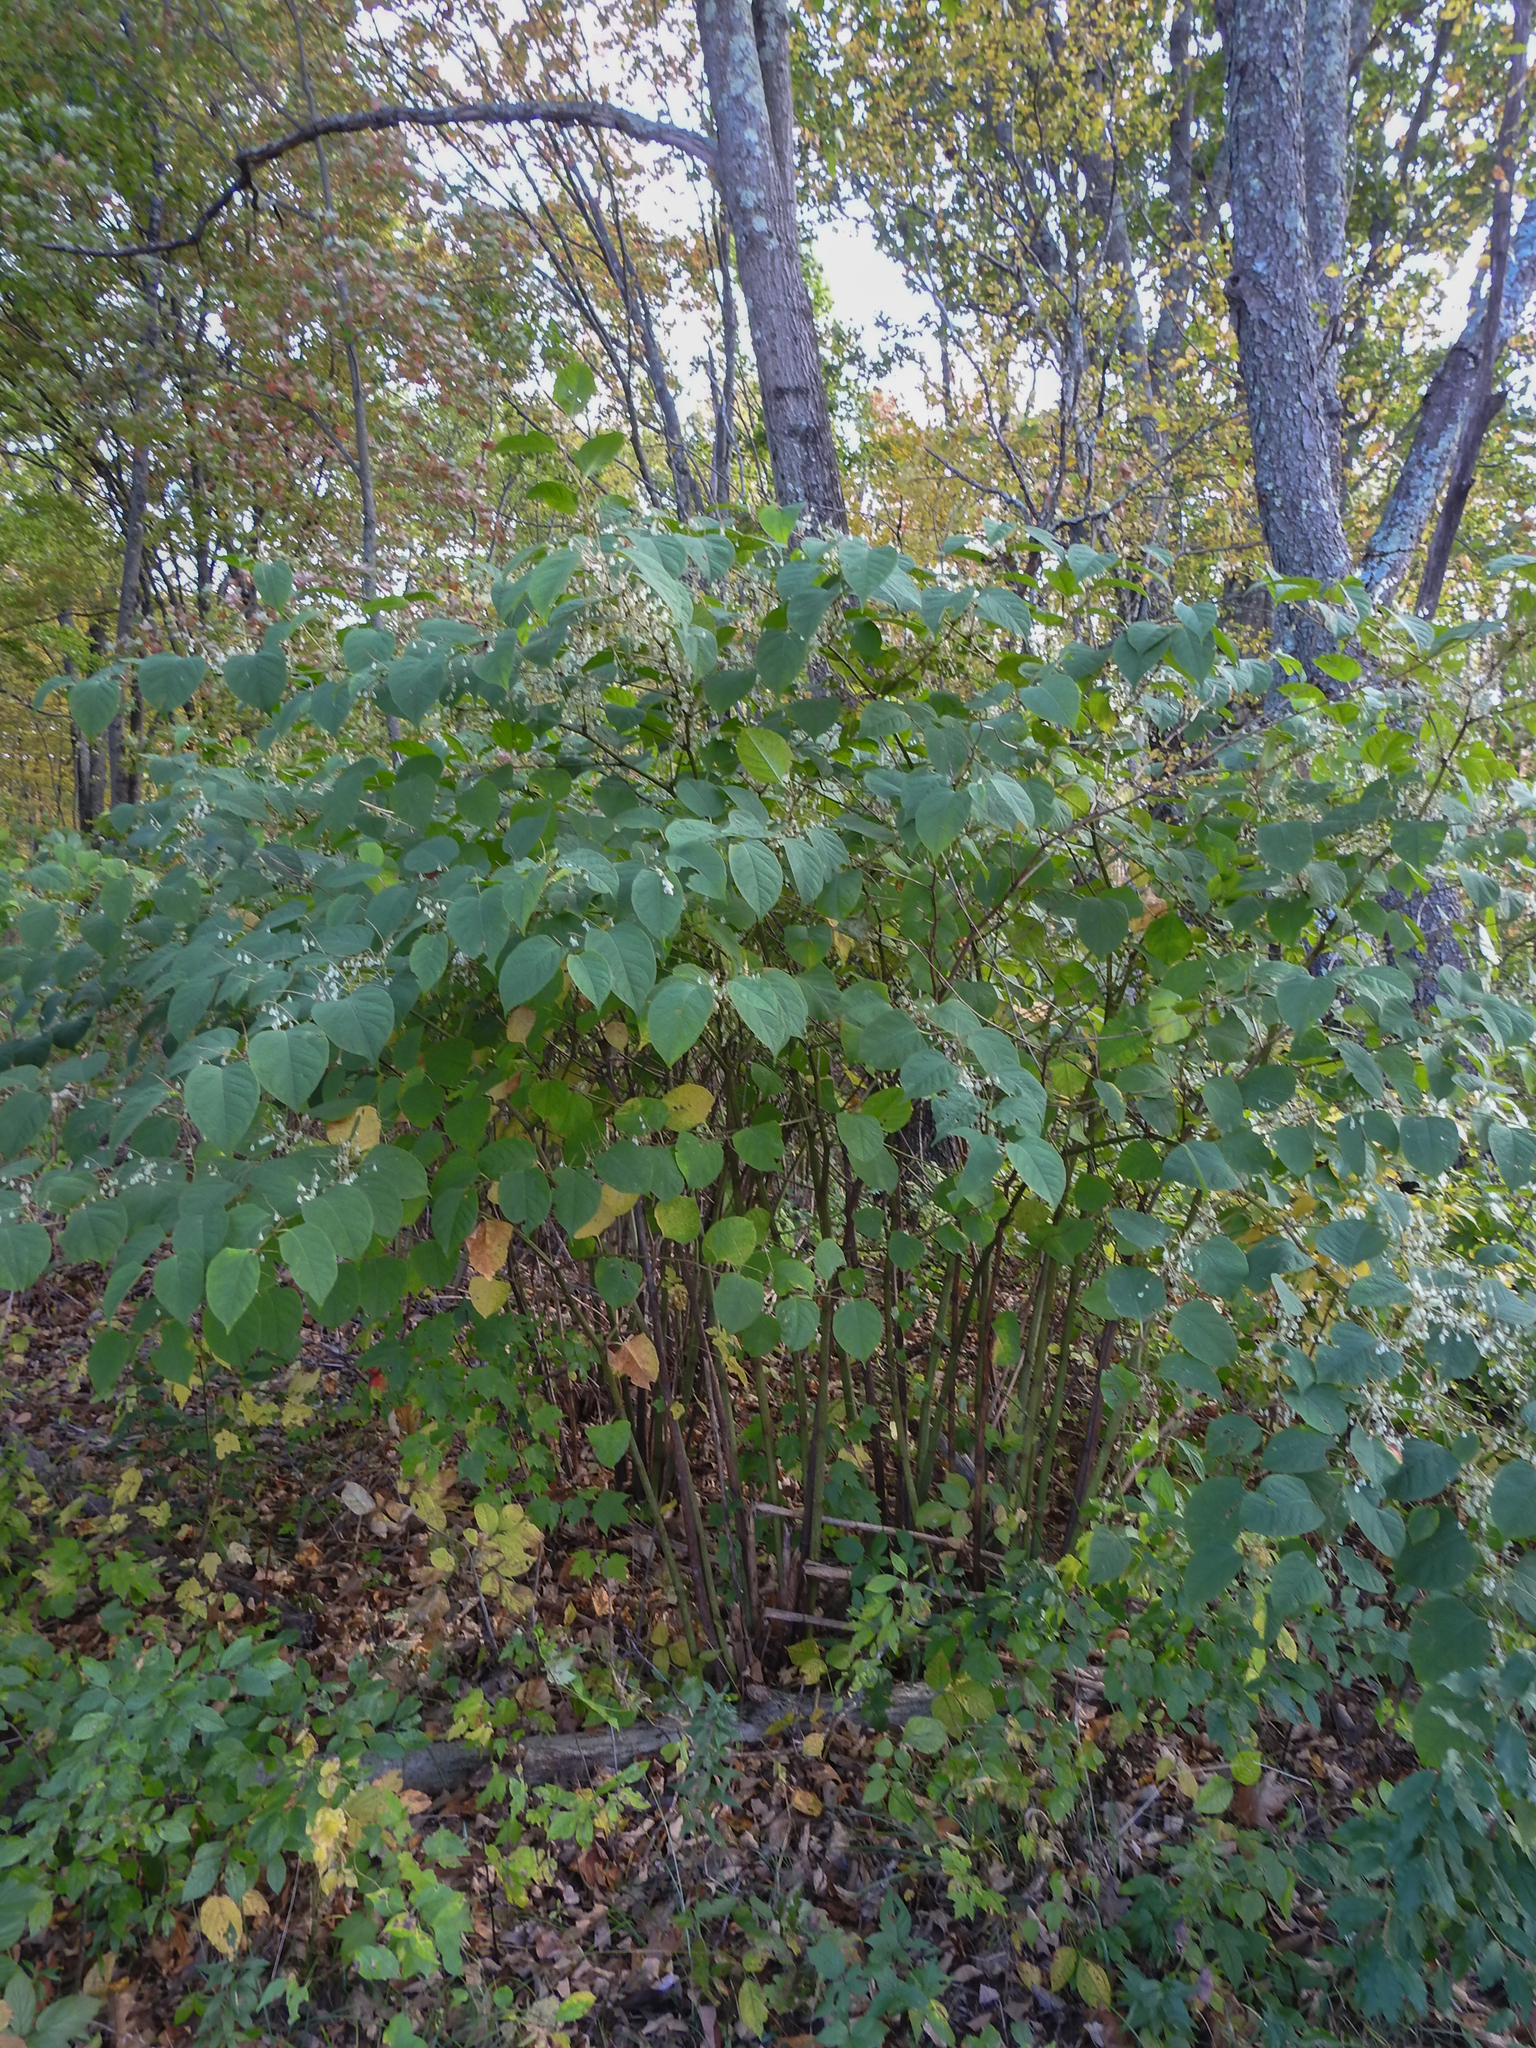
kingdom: Plantae
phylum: Tracheophyta
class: Magnoliopsida
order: Caryophyllales
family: Polygonaceae
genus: Reynoutria
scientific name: Reynoutria japonica
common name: Japanese knotweed
